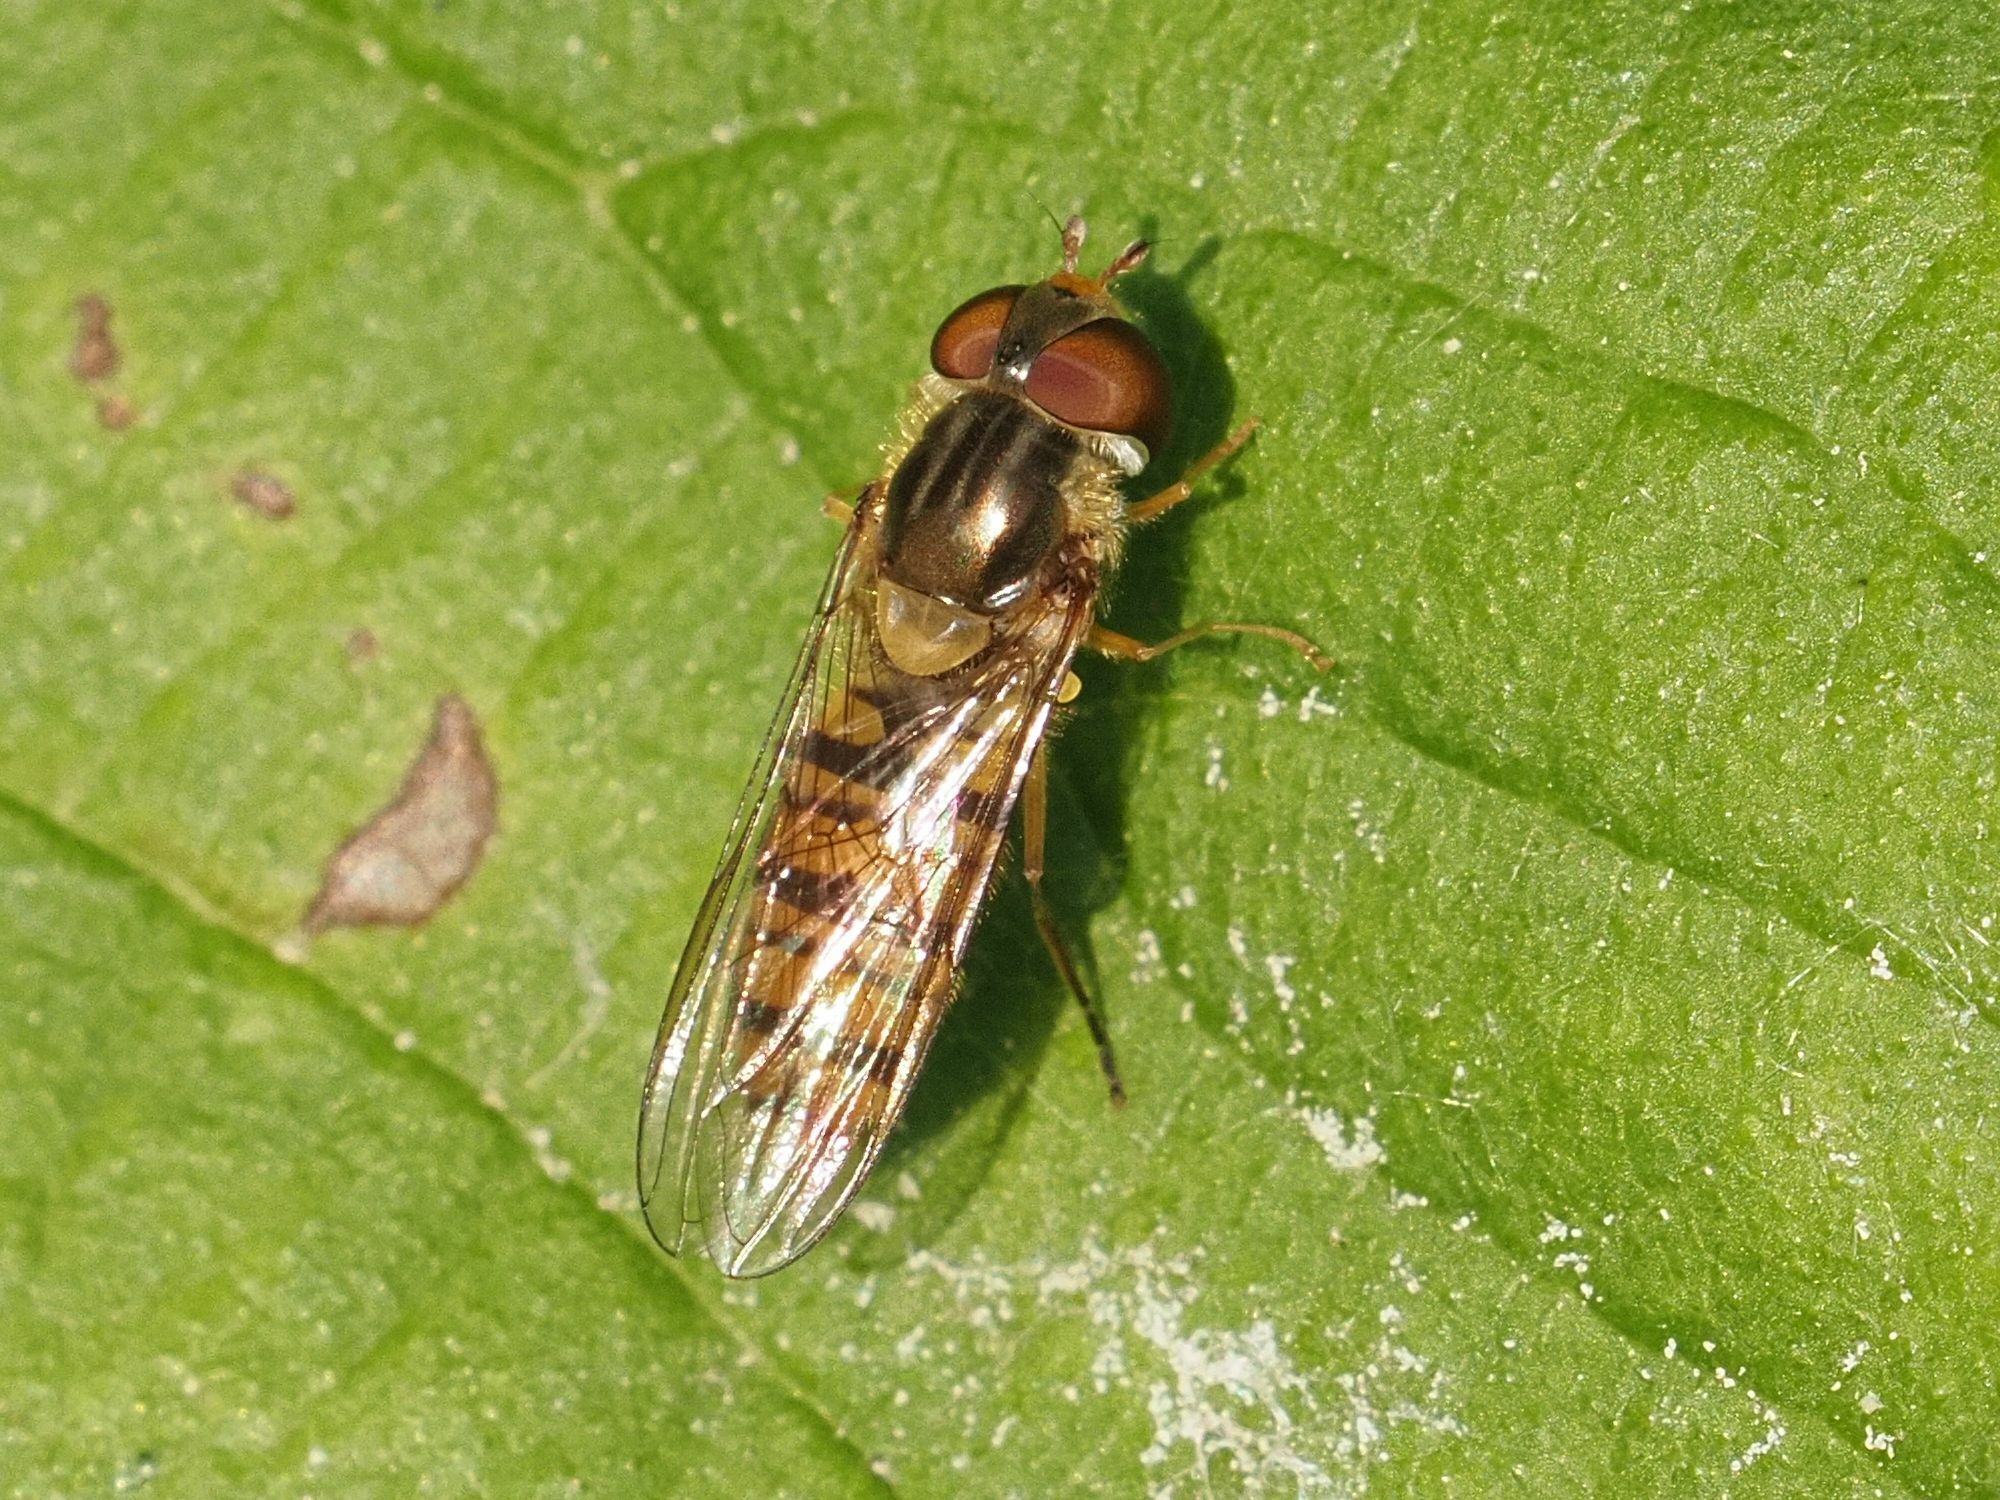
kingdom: Animalia
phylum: Arthropoda
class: Insecta
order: Diptera
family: Syrphidae
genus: Episyrphus
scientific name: Episyrphus balteatus
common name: Marmalade hoverfly
